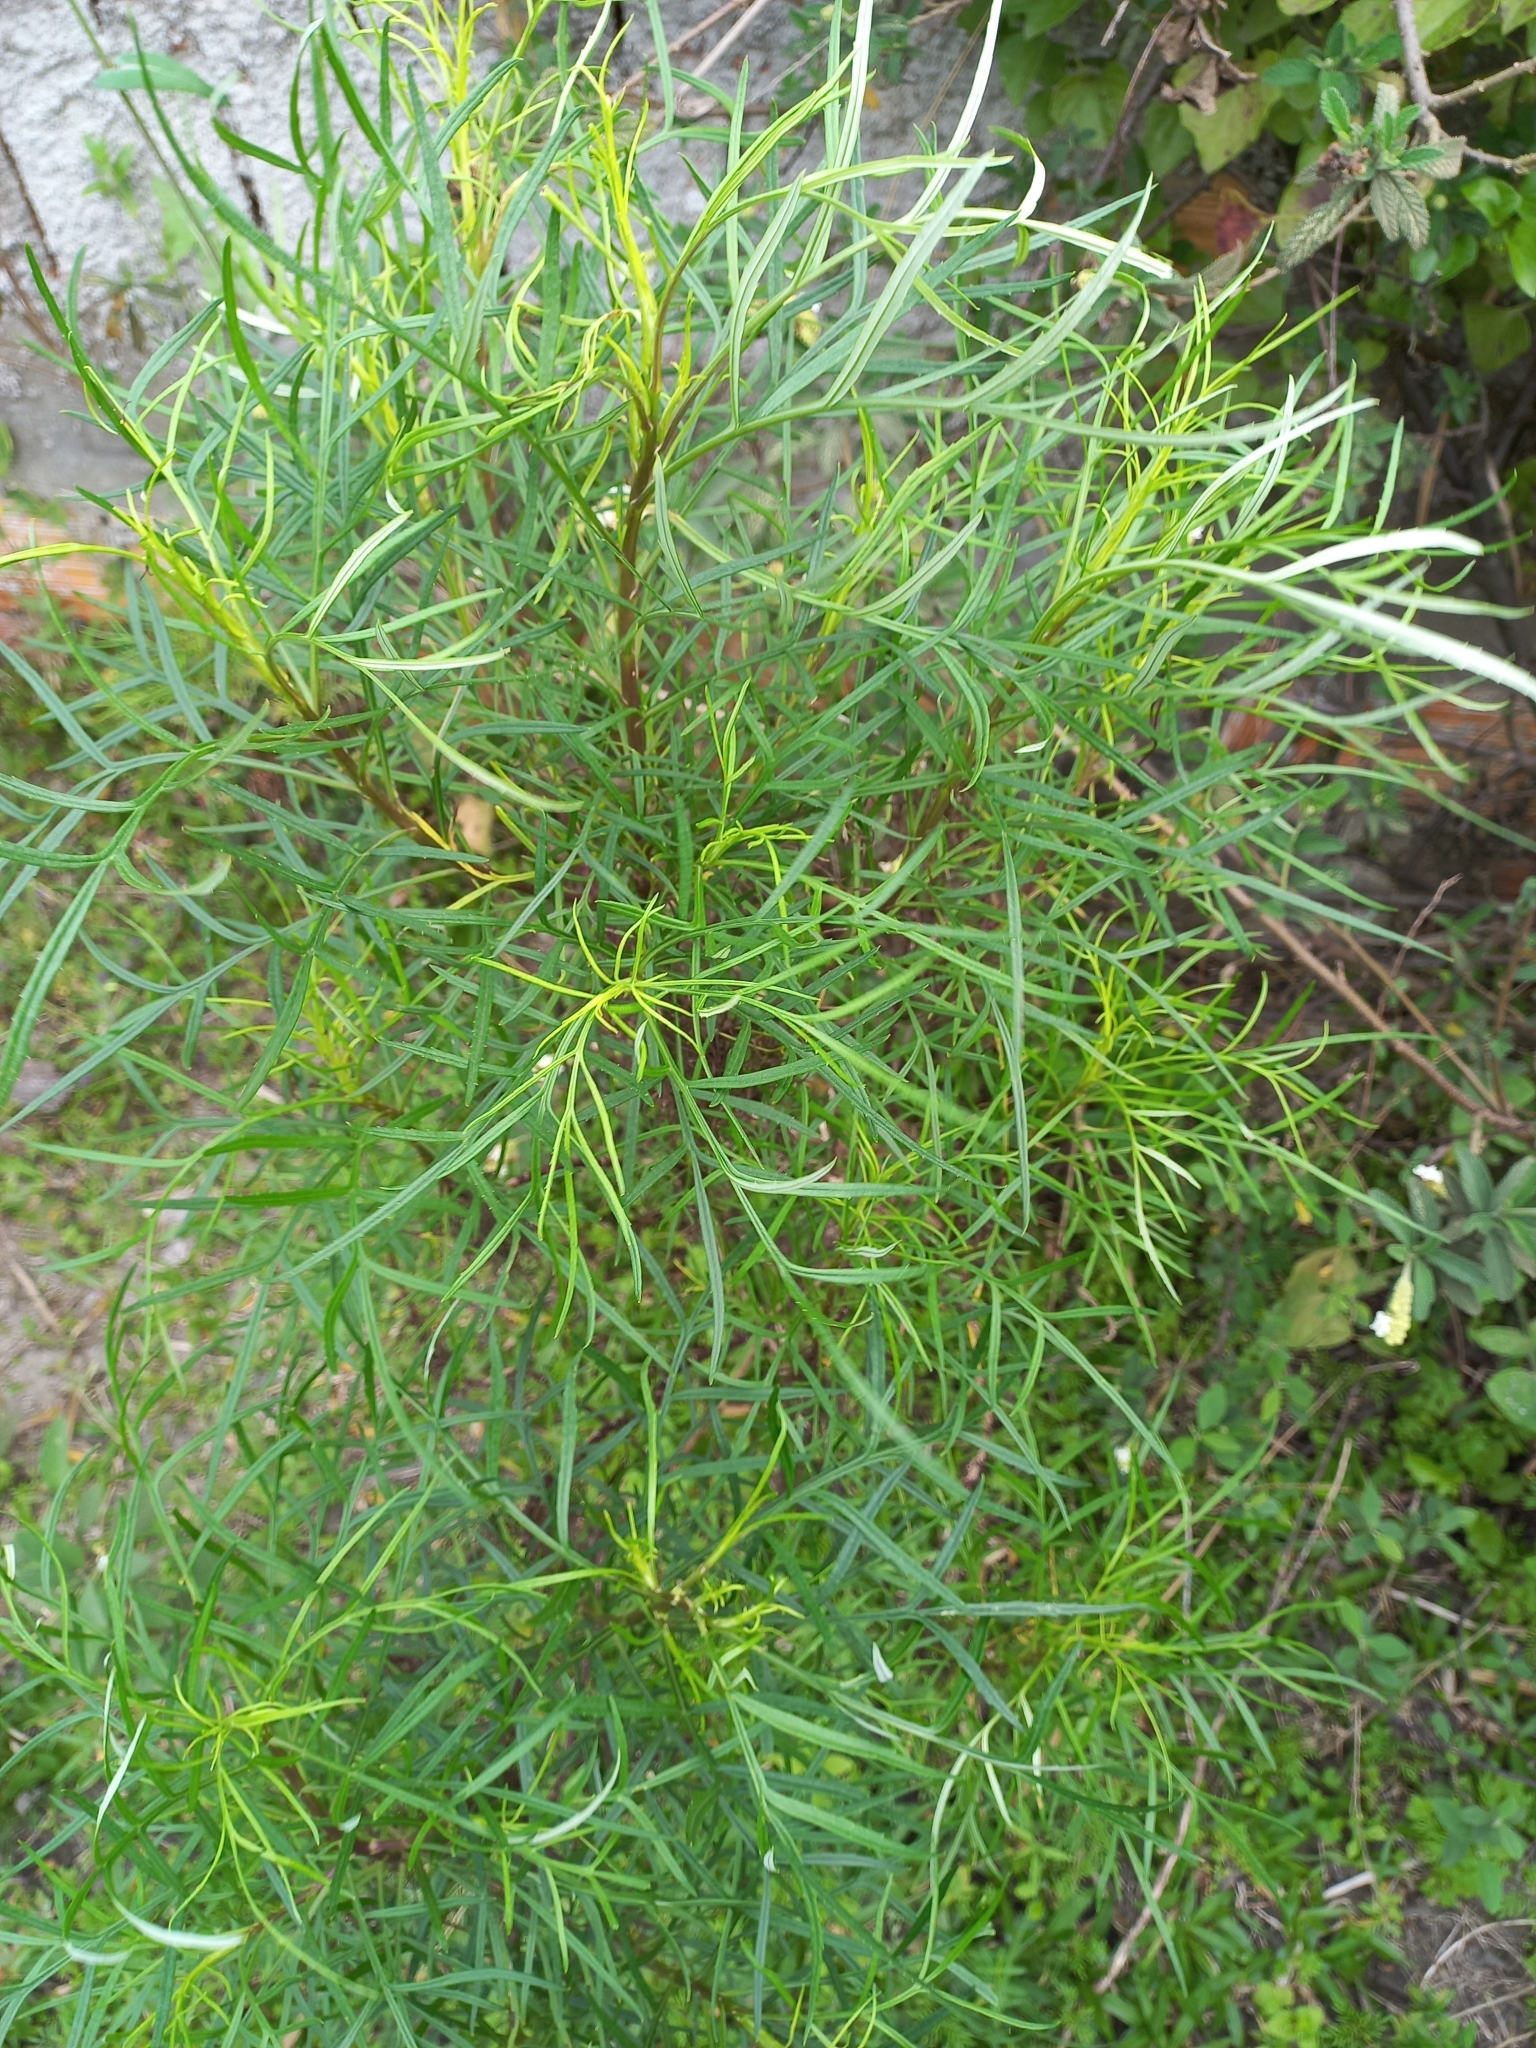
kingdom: Plantae
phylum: Tracheophyta
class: Magnoliopsida
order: Asterales
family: Asteraceae
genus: Senecio
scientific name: Senecio brasiliensis
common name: Hemp-leaf ragwort
